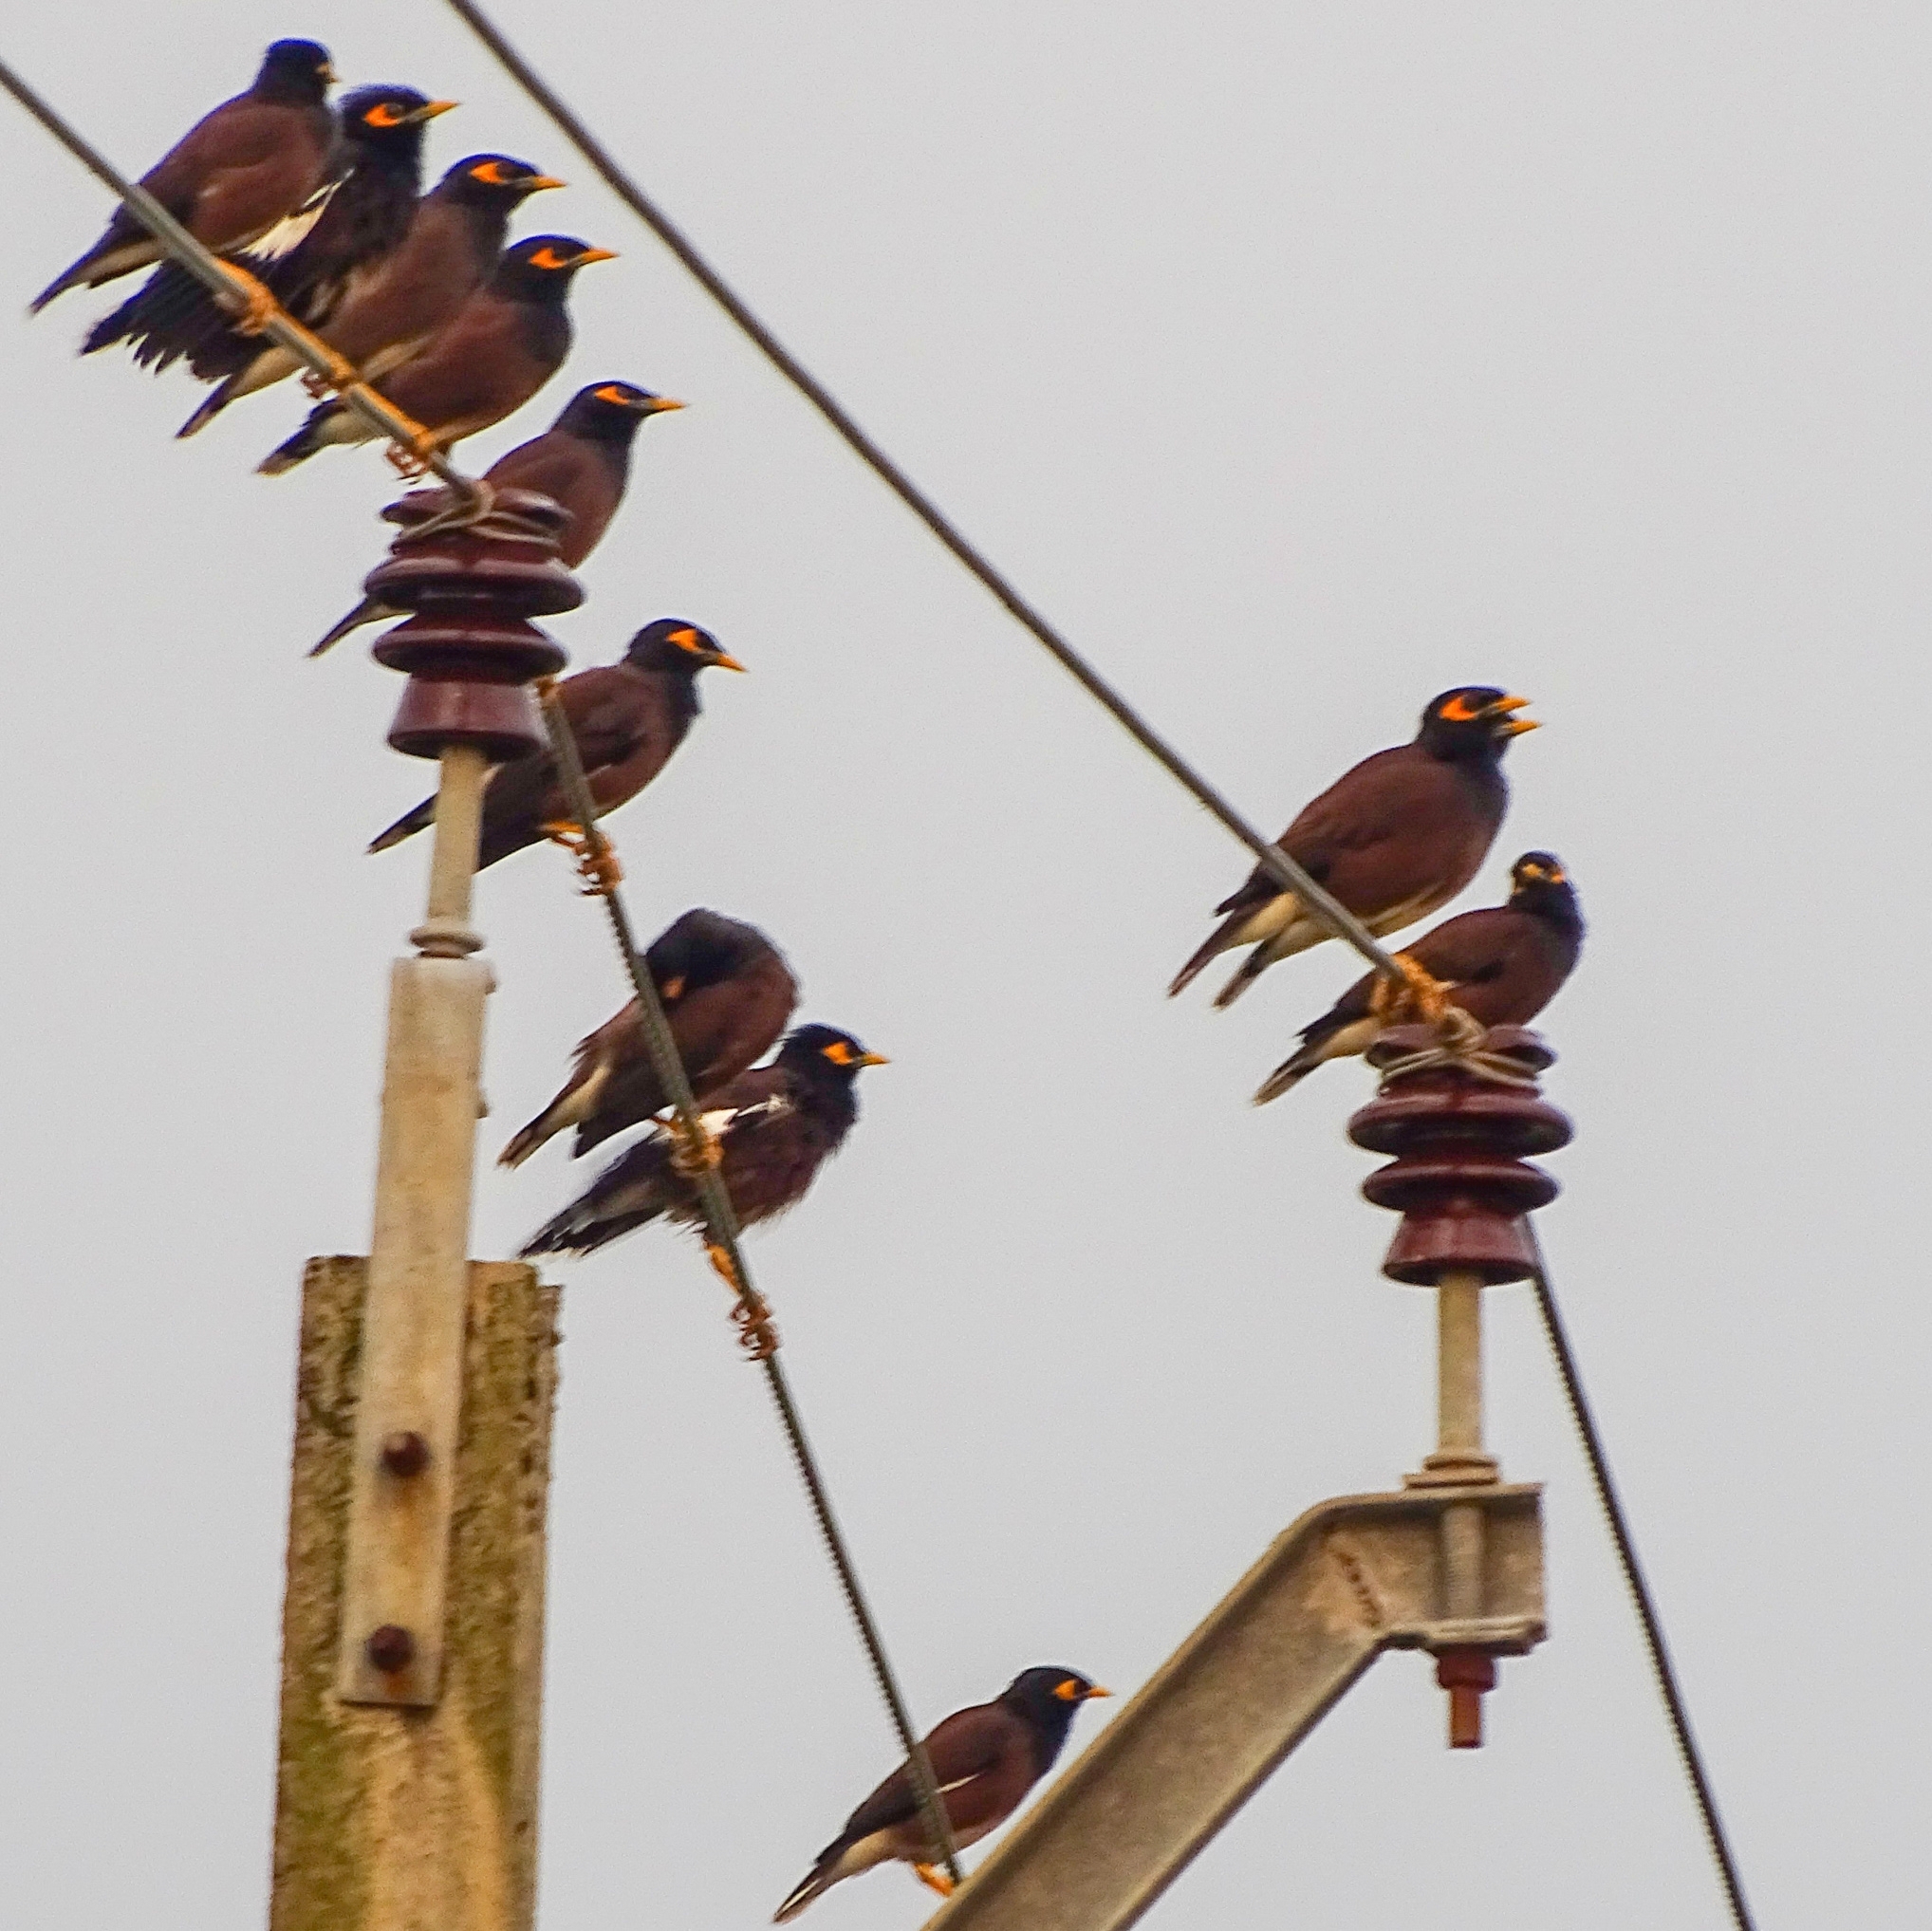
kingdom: Animalia
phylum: Chordata
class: Aves
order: Passeriformes
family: Sturnidae
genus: Acridotheres
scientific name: Acridotheres tristis
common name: Common myna
